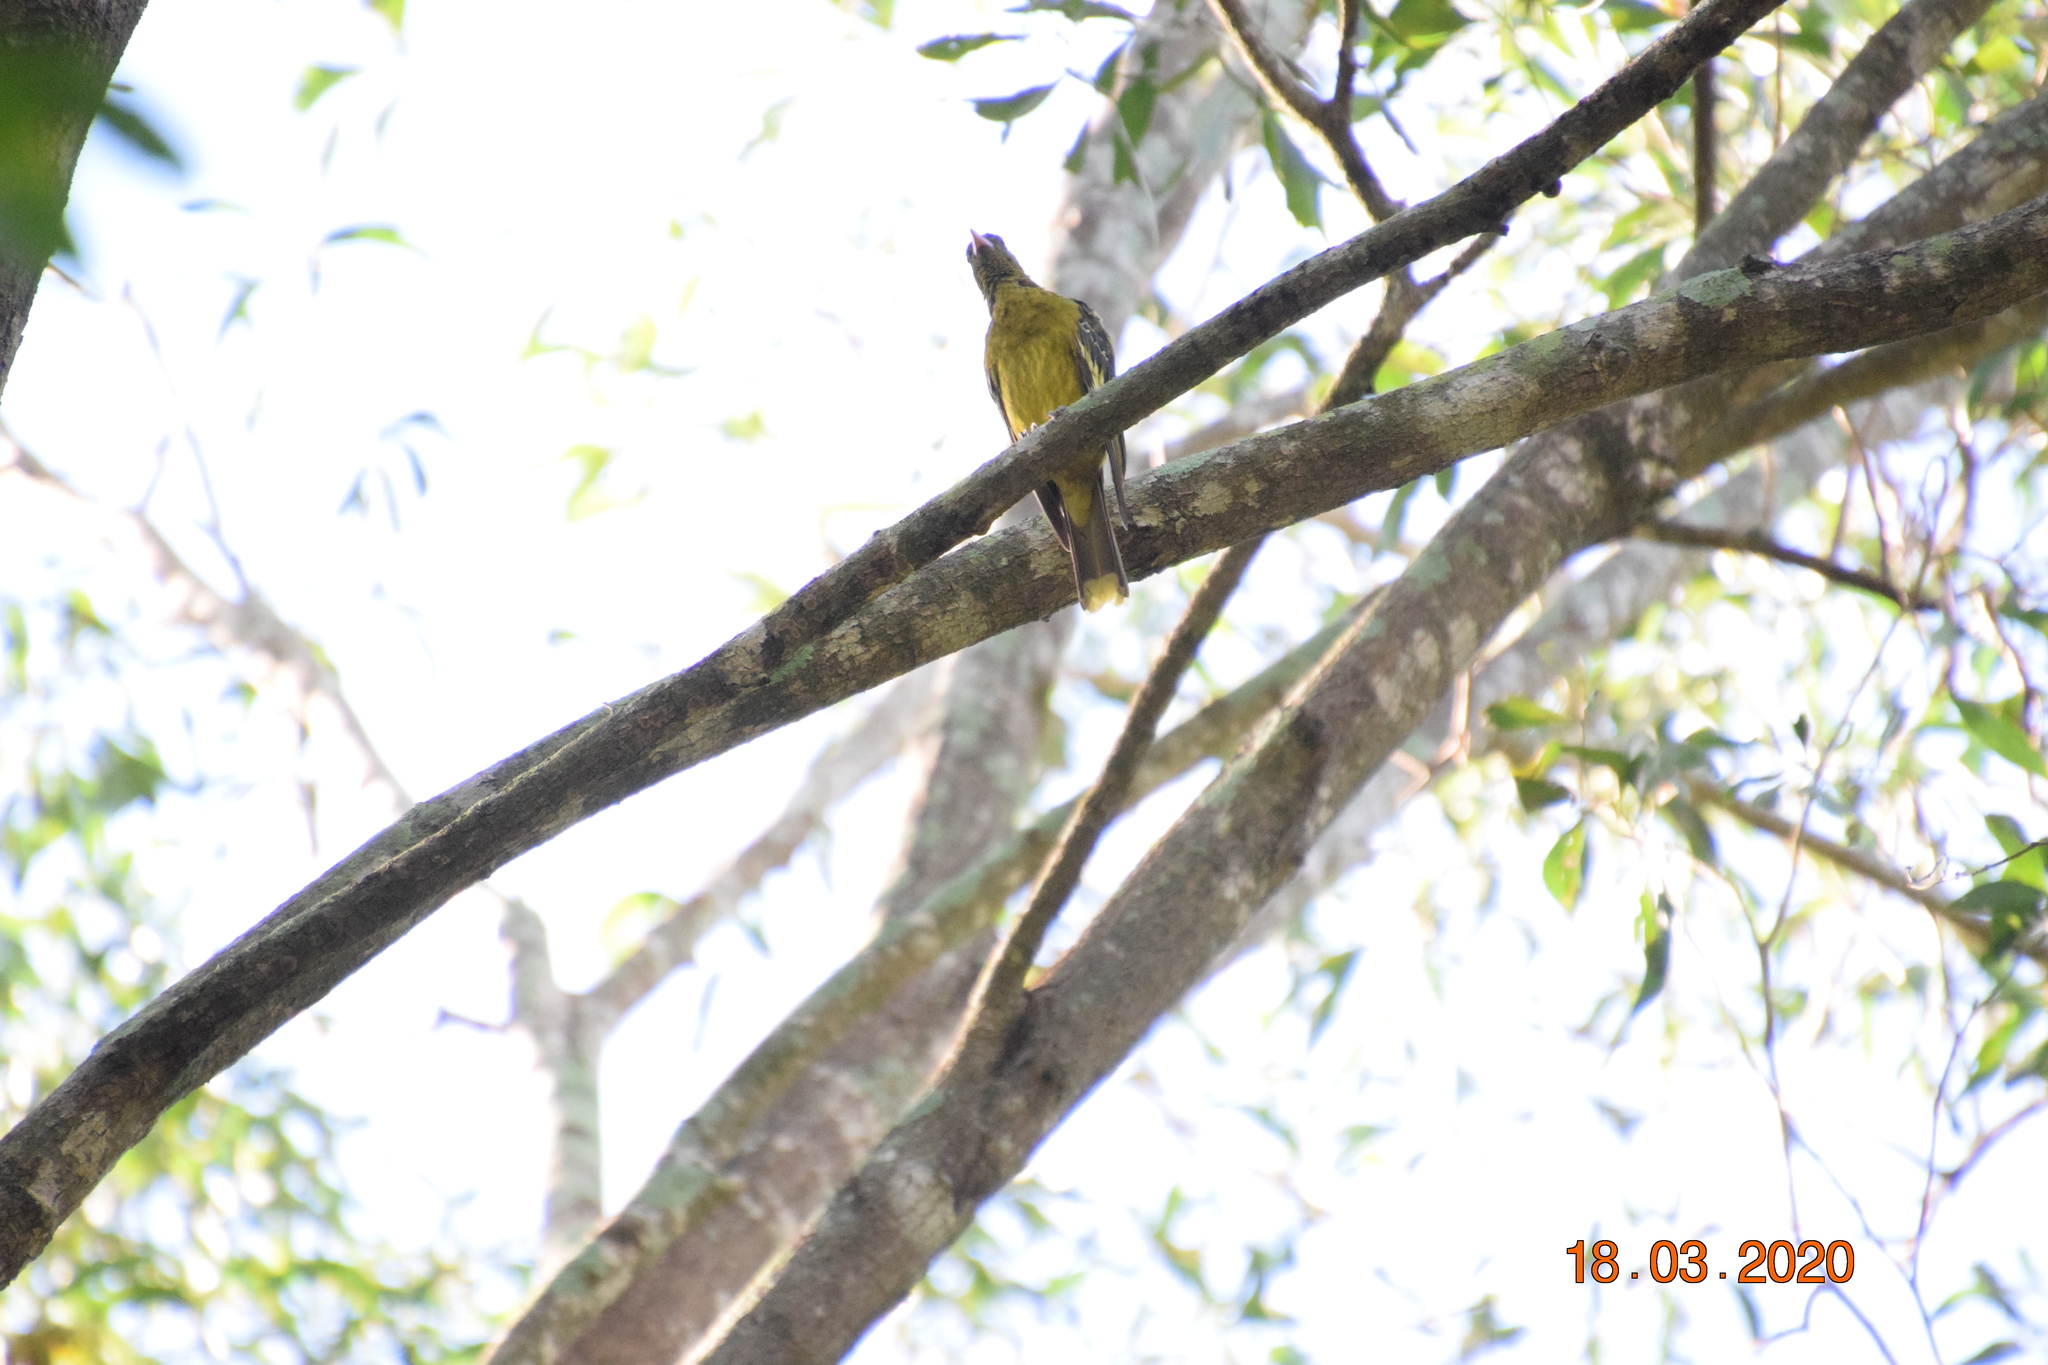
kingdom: Animalia
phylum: Chordata
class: Aves
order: Passeriformes
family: Oriolidae
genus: Oriolus
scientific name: Oriolus flavocinctus
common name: Green oriole
